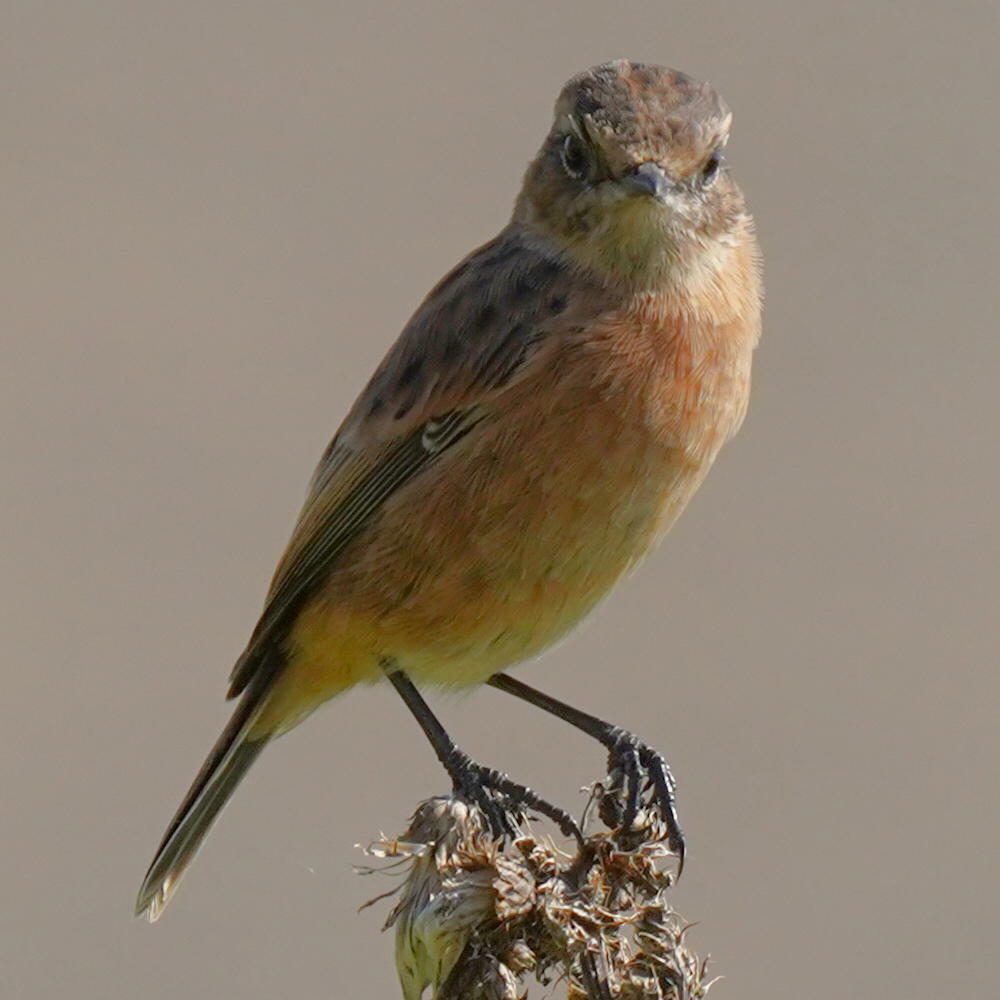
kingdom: Animalia
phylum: Chordata
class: Aves
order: Passeriformes
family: Muscicapidae
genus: Saxicola
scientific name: Saxicola rubicola
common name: European stonechat
